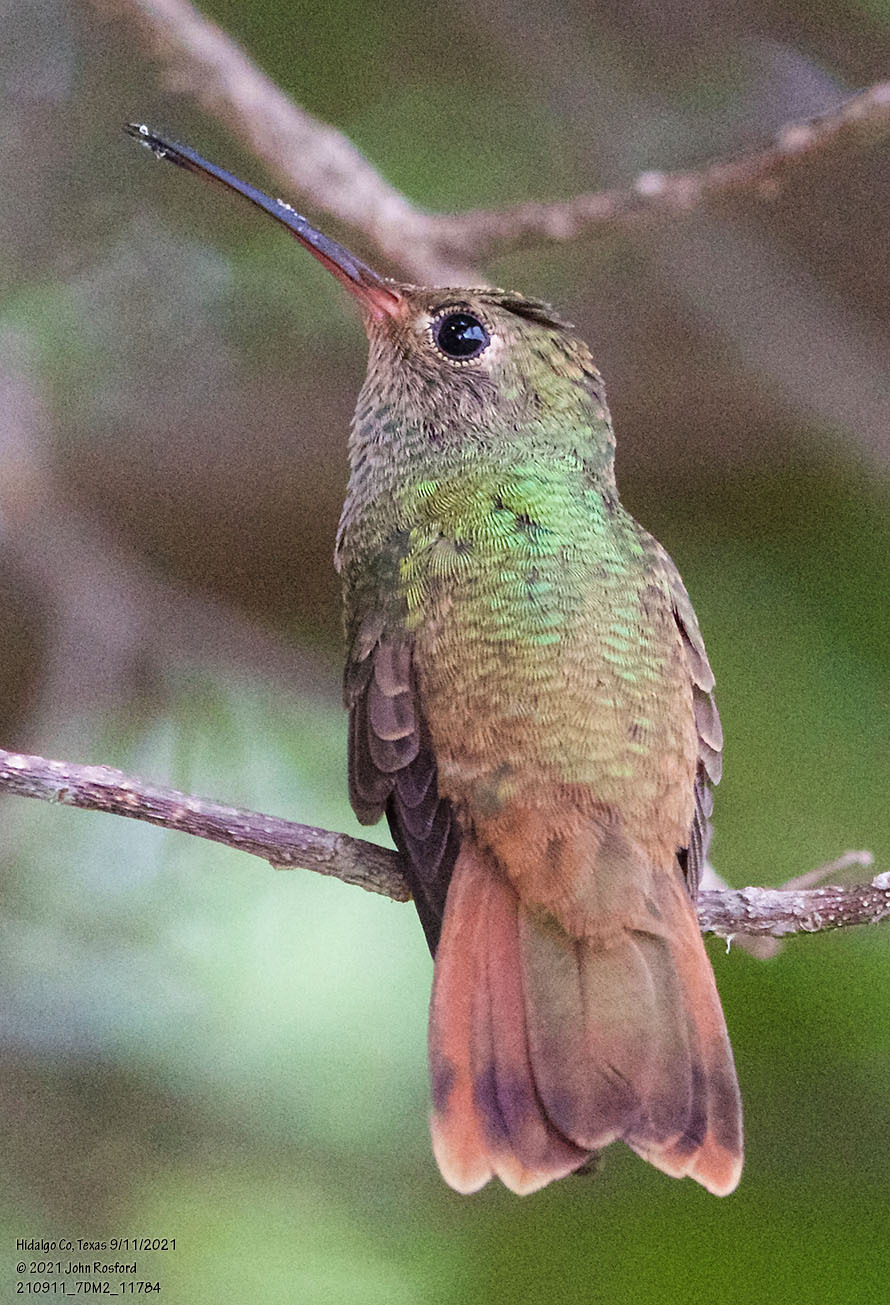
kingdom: Animalia
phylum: Chordata
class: Aves
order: Apodiformes
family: Trochilidae
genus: Amazilia
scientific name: Amazilia yucatanensis
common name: Buff-bellied hummingbird
